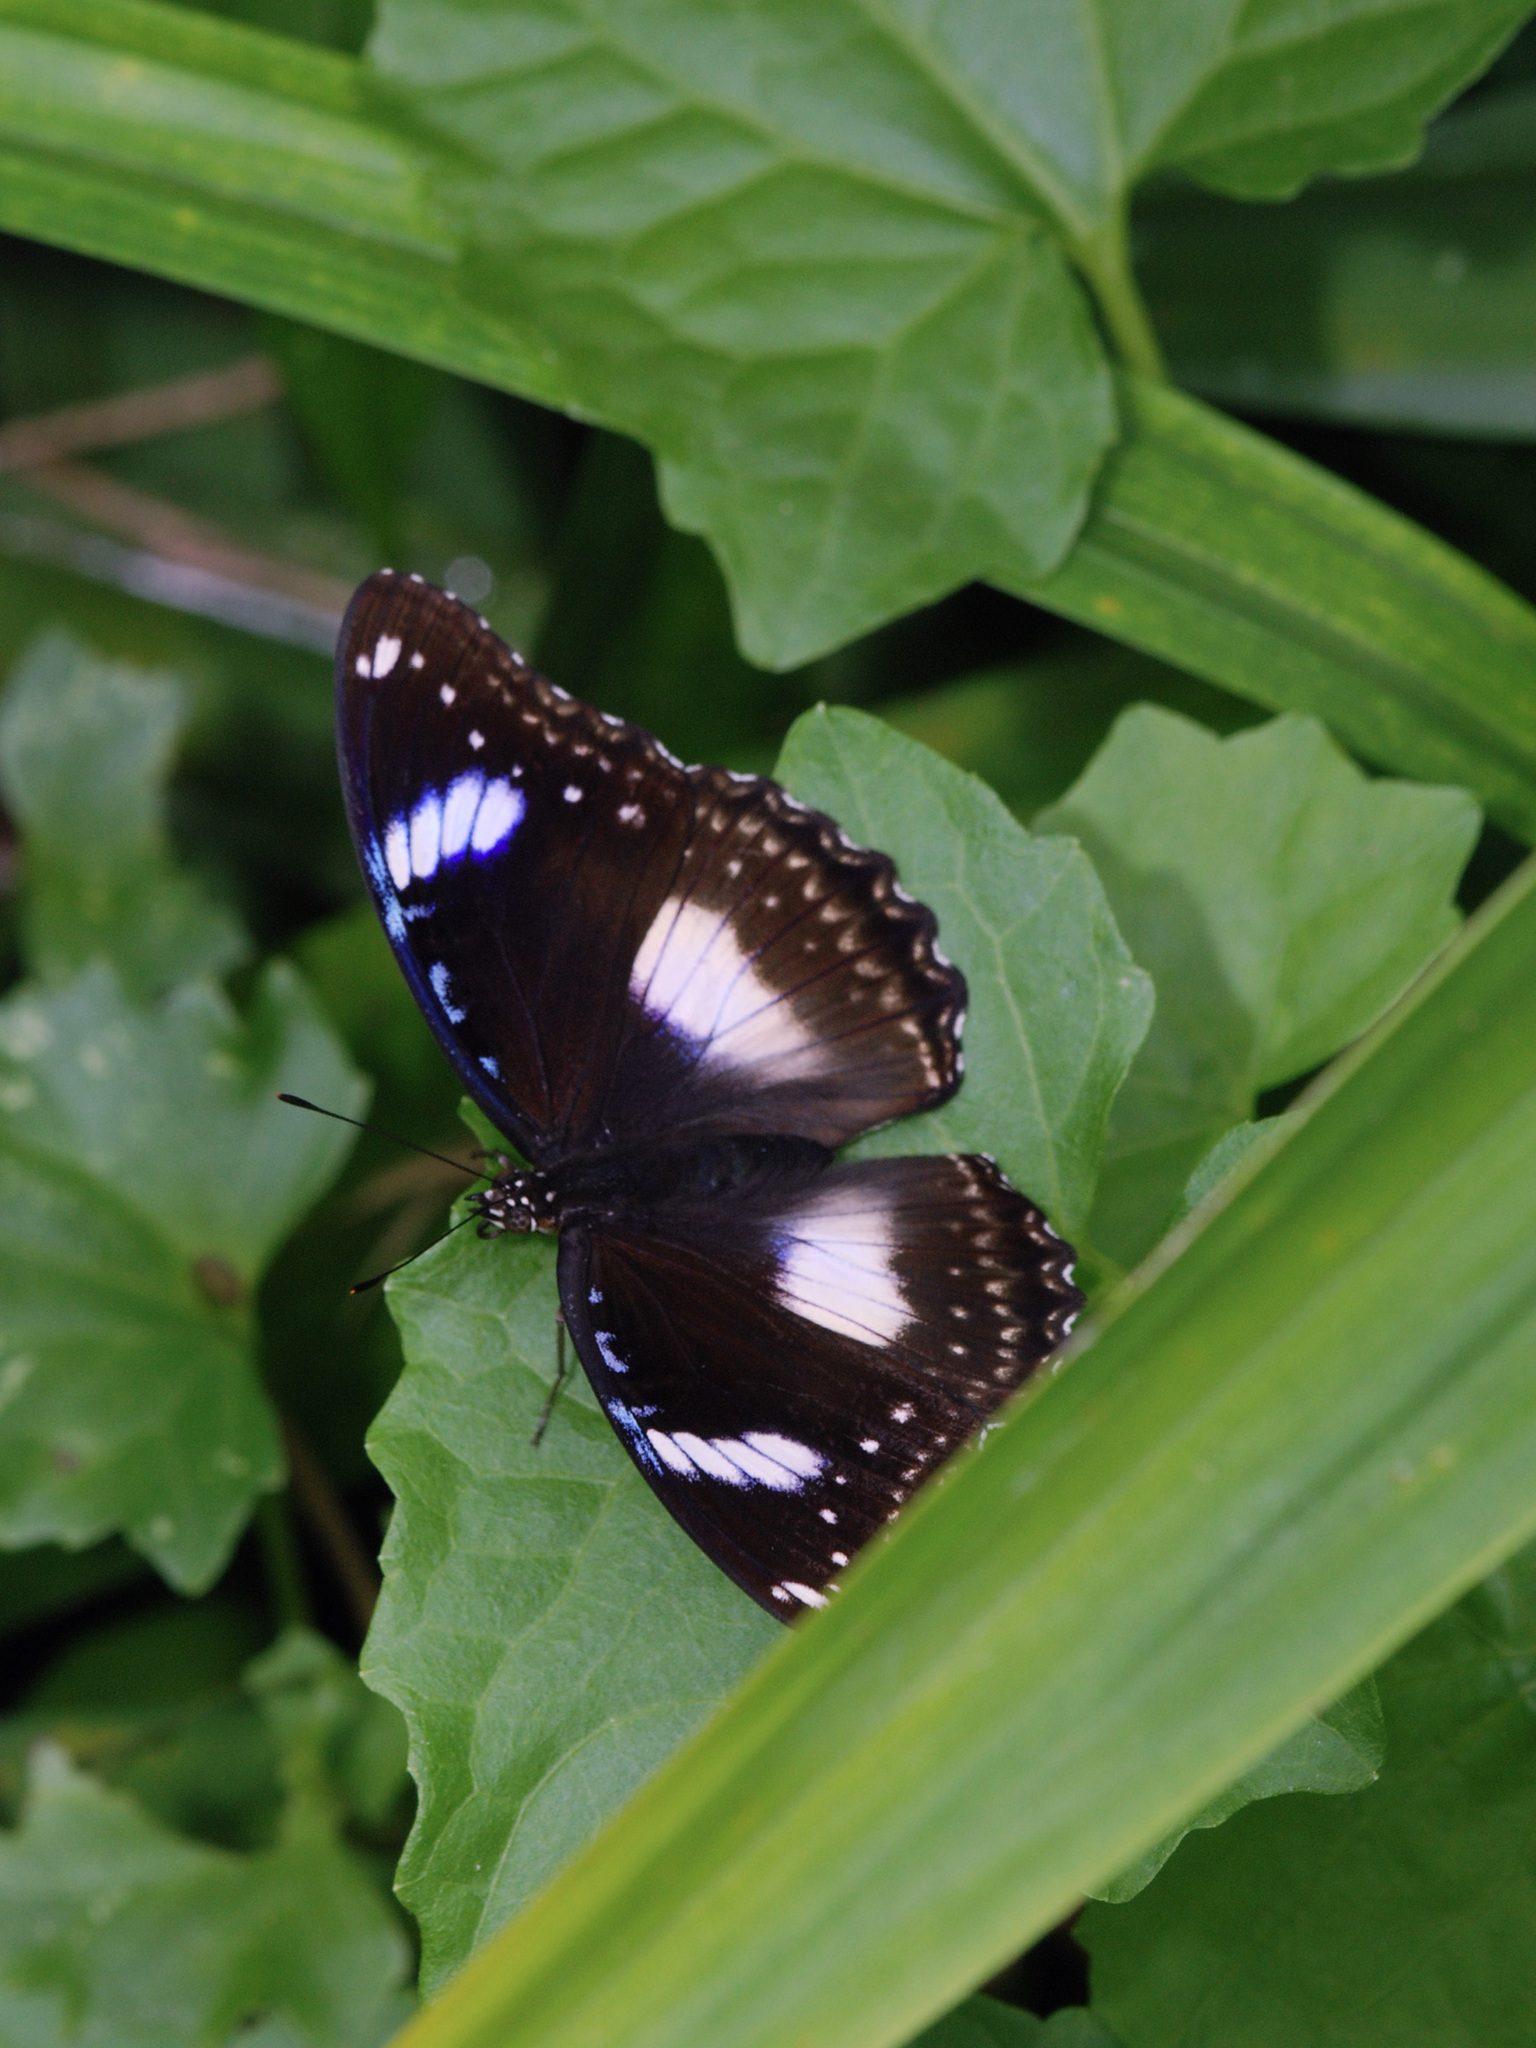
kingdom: Animalia
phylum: Arthropoda
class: Insecta
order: Lepidoptera
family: Nymphalidae
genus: Hypolimnas
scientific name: Hypolimnas bolina
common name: Great eggfly
